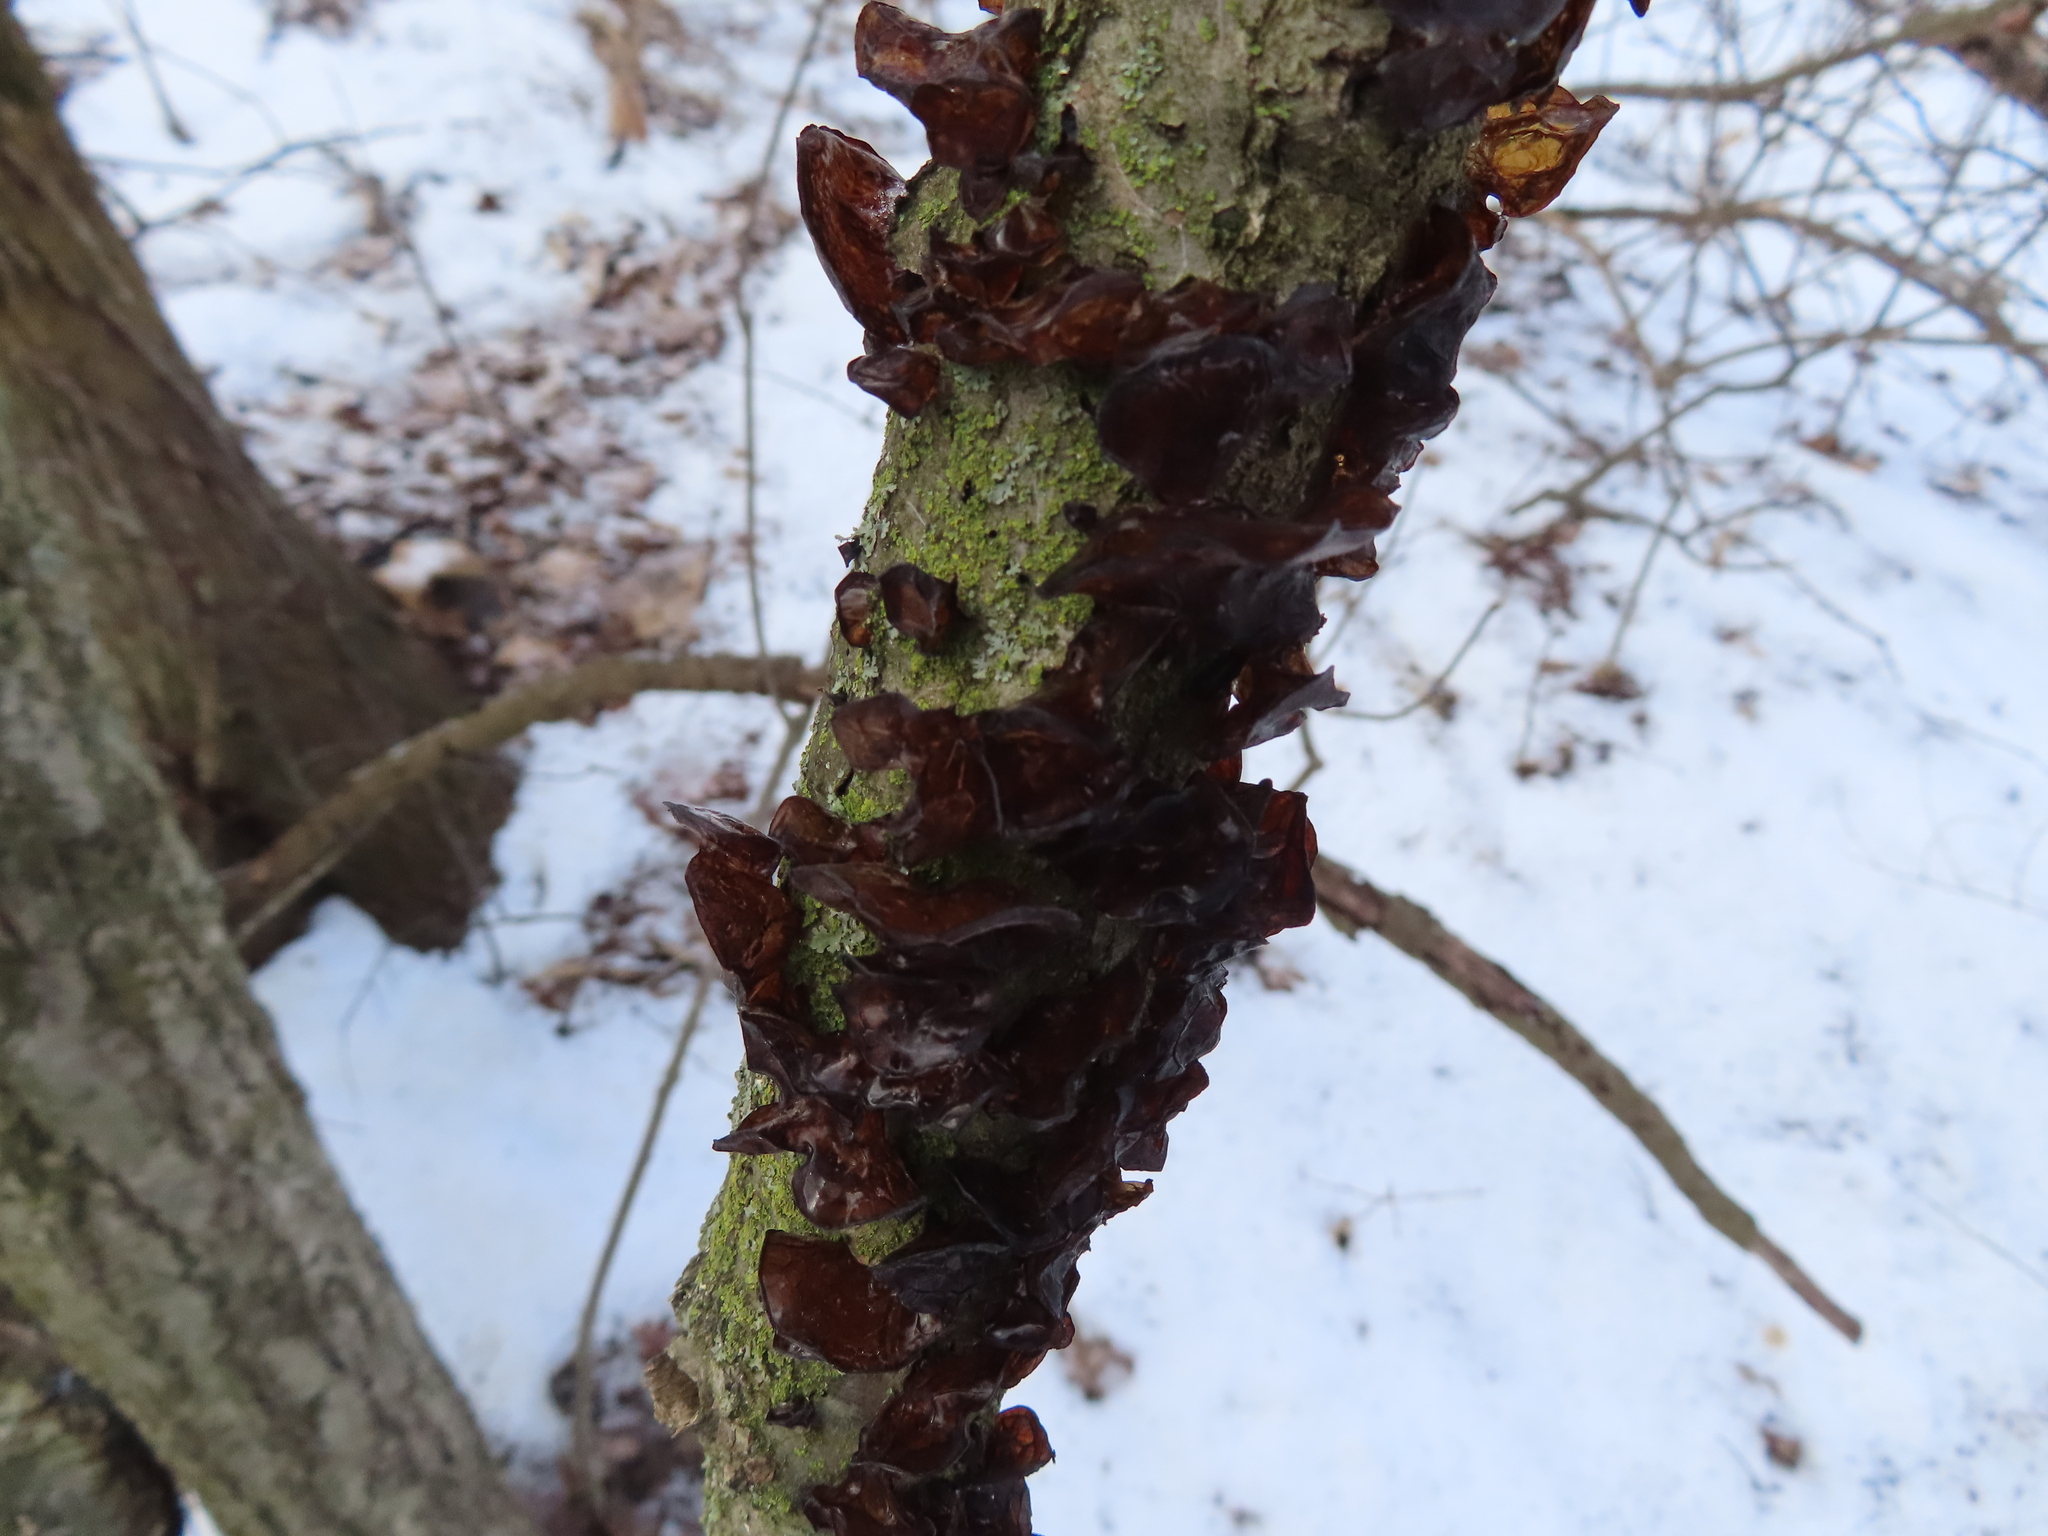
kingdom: Fungi
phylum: Basidiomycota
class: Agaricomycetes
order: Auriculariales
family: Auriculariaceae
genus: Exidia
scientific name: Exidia
